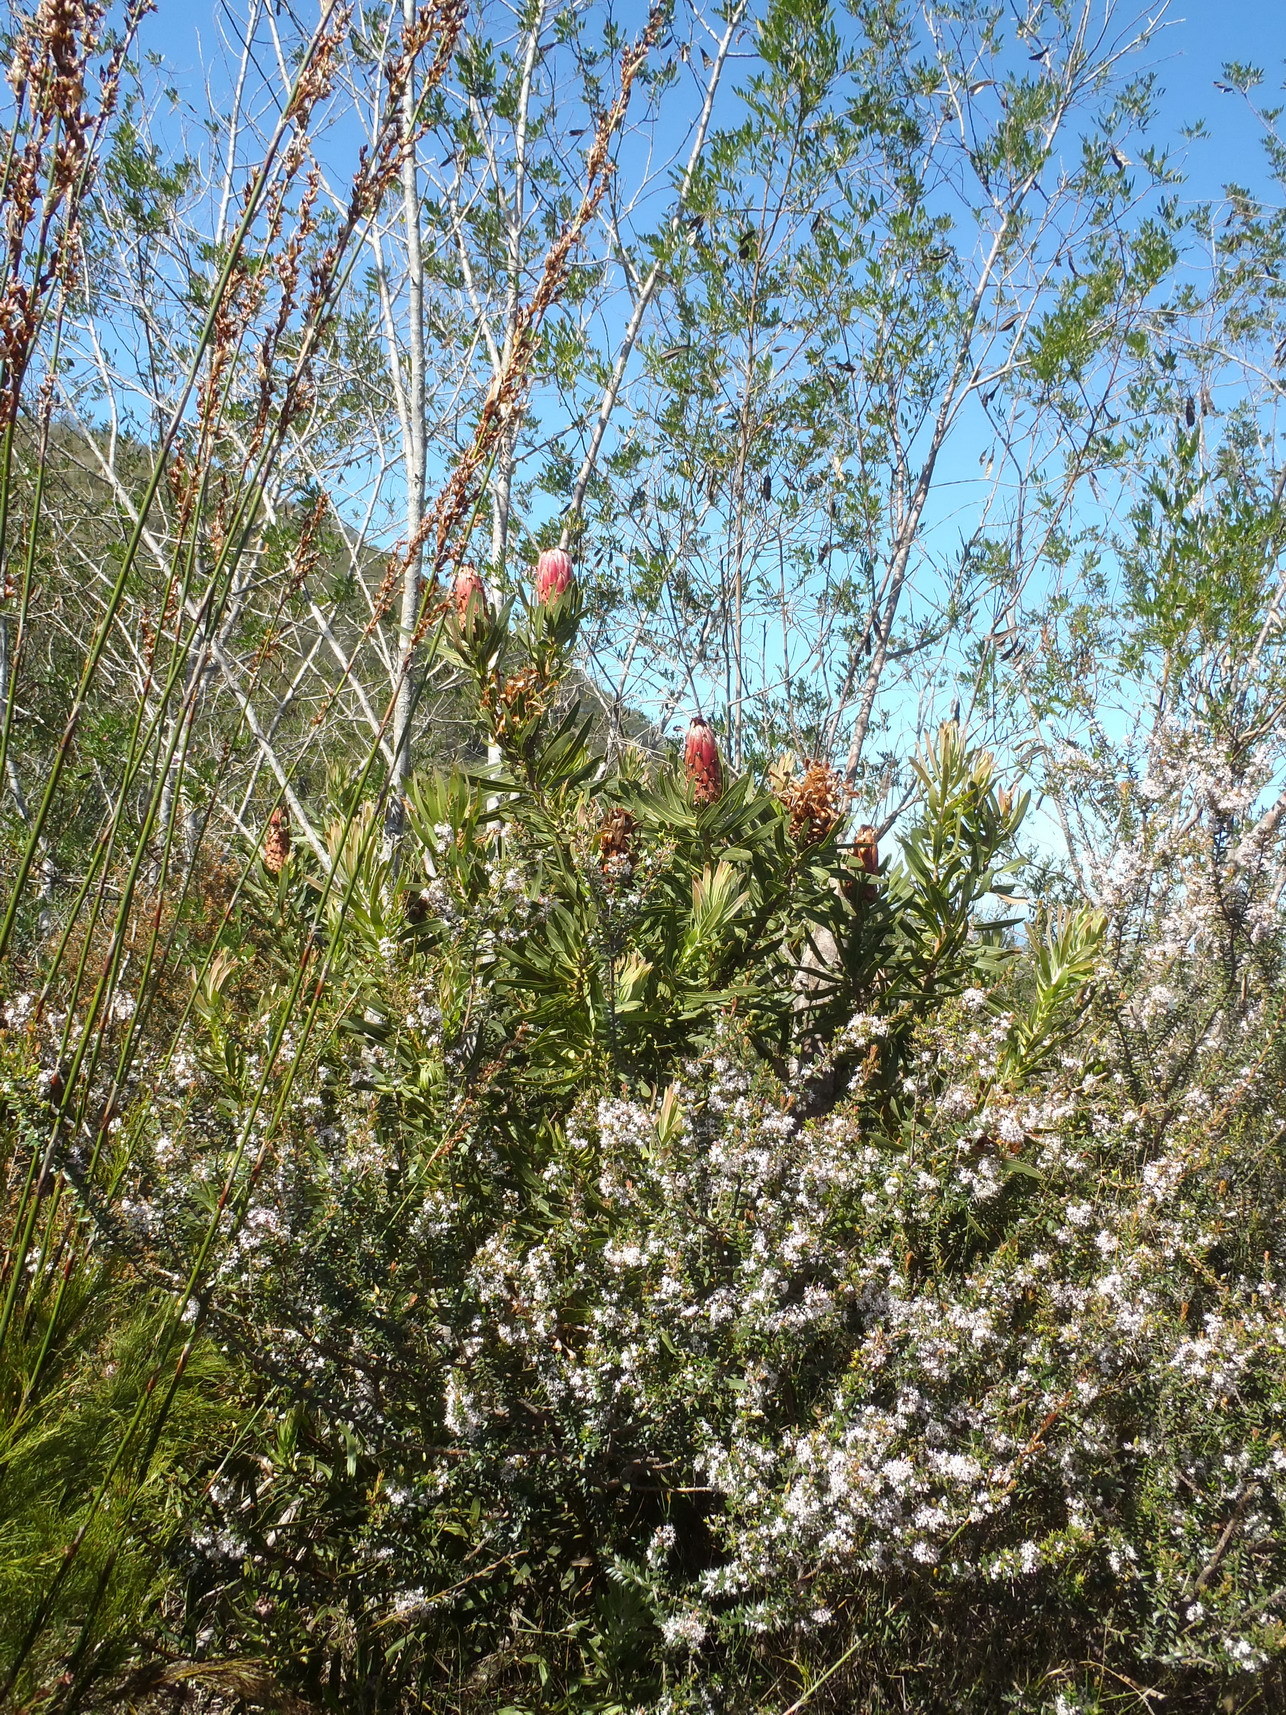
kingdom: Plantae
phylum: Tracheophyta
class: Magnoliopsida
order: Proteales
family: Proteaceae
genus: Protea
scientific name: Protea neriifolia
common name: Blue sugarbush
